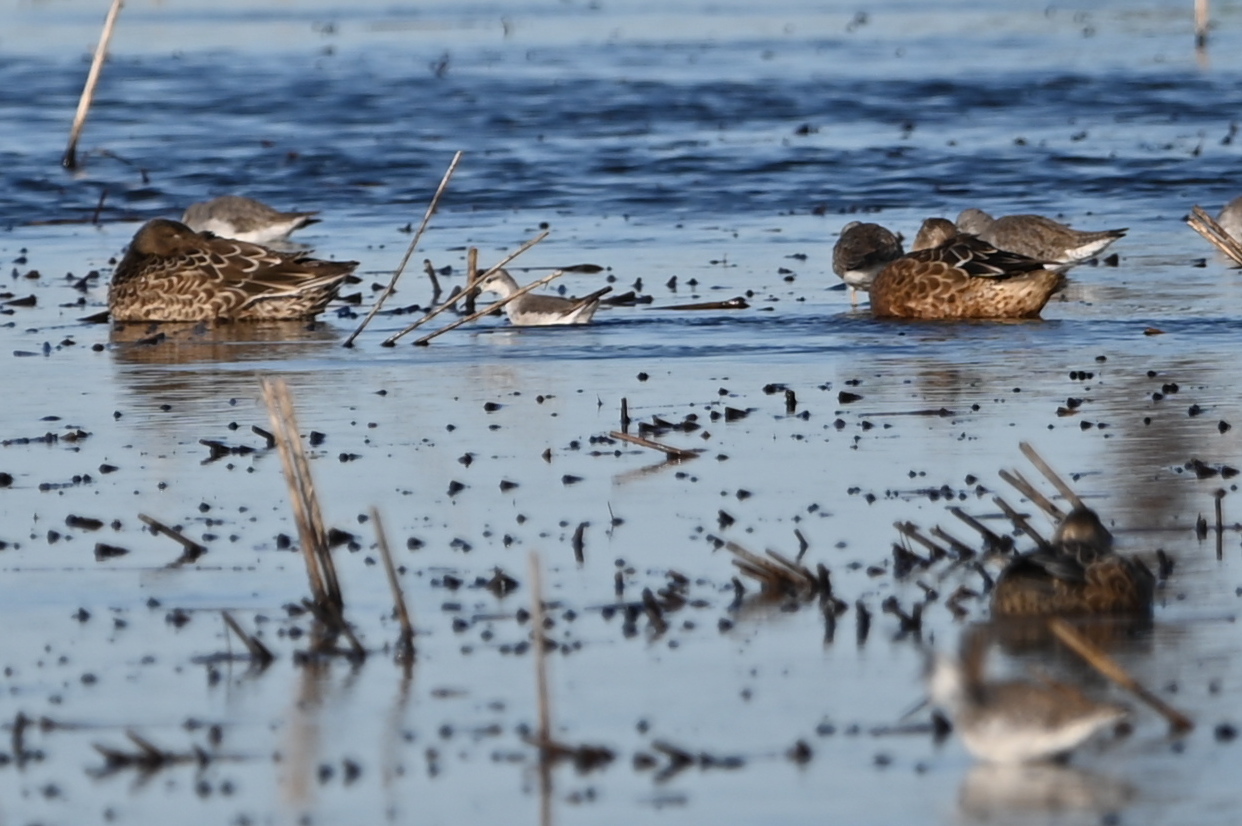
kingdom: Animalia
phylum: Chordata
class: Aves
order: Charadriiformes
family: Scolopacidae
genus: Phalaropus
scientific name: Phalaropus tricolor
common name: Wilson's phalarope
